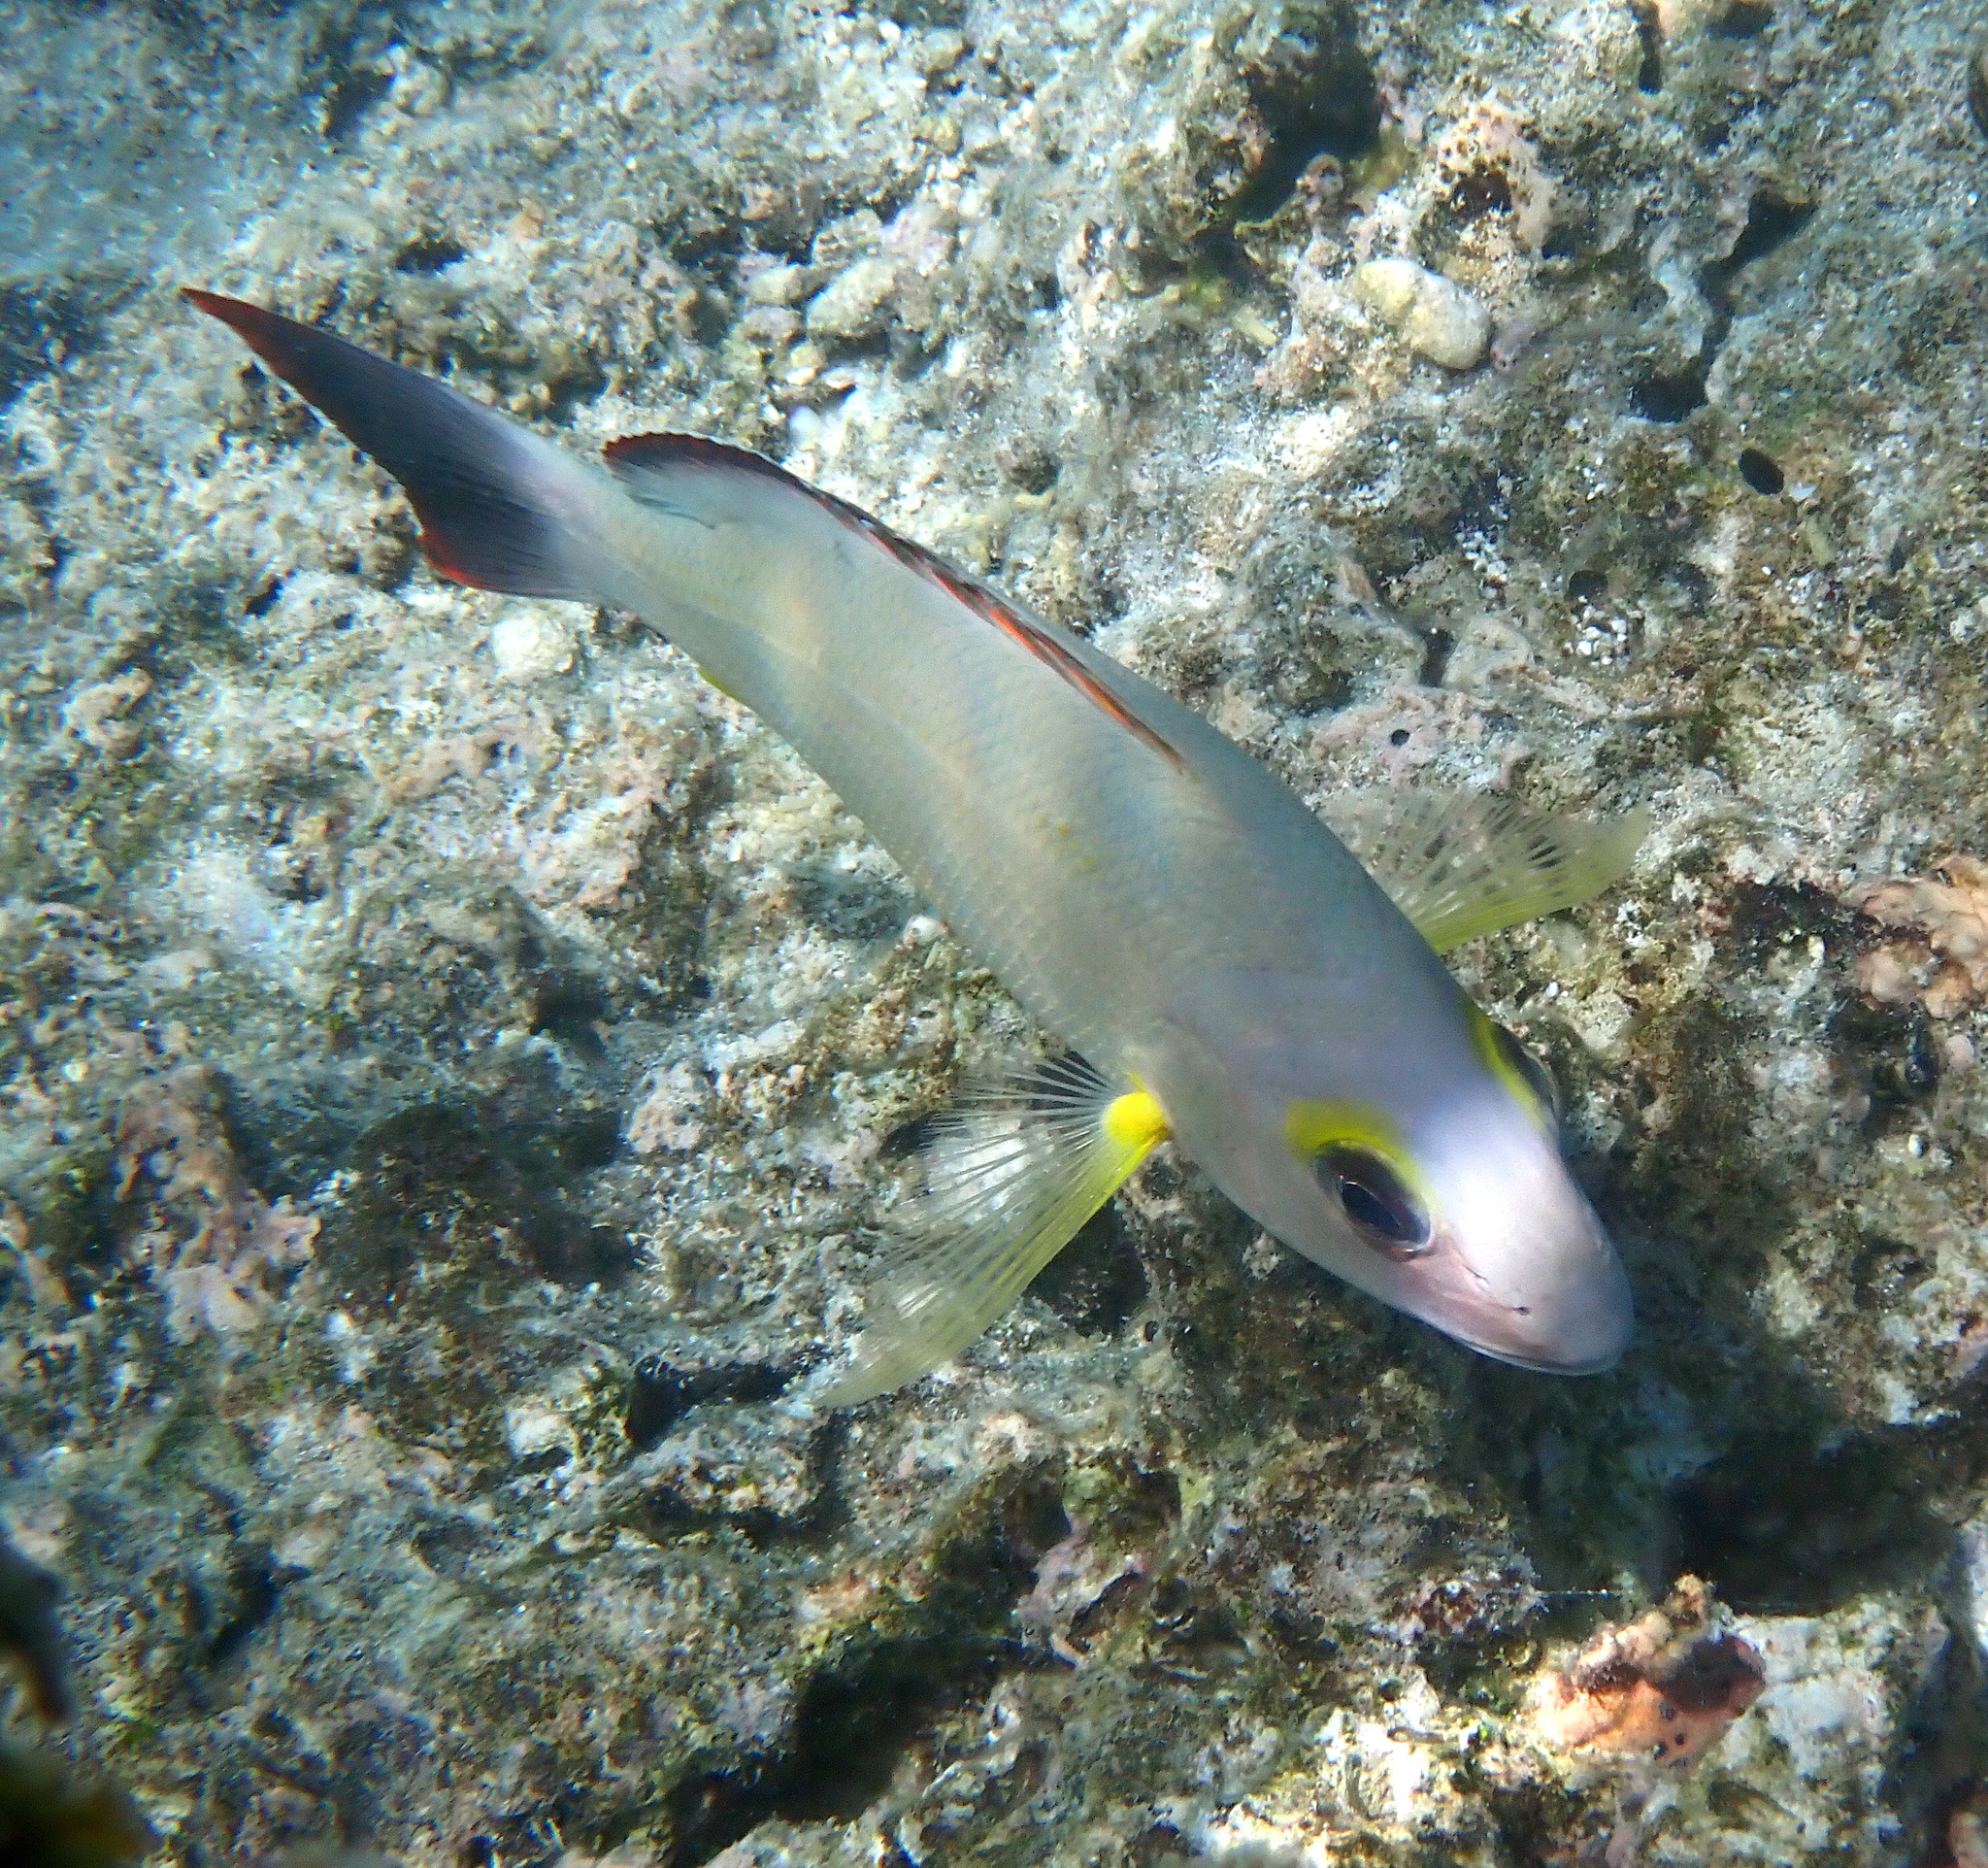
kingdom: Animalia
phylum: Chordata
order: Perciformes
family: Lutjanidae
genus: Lutjanus
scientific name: Lutjanus fulvus
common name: Blacktail snapper
